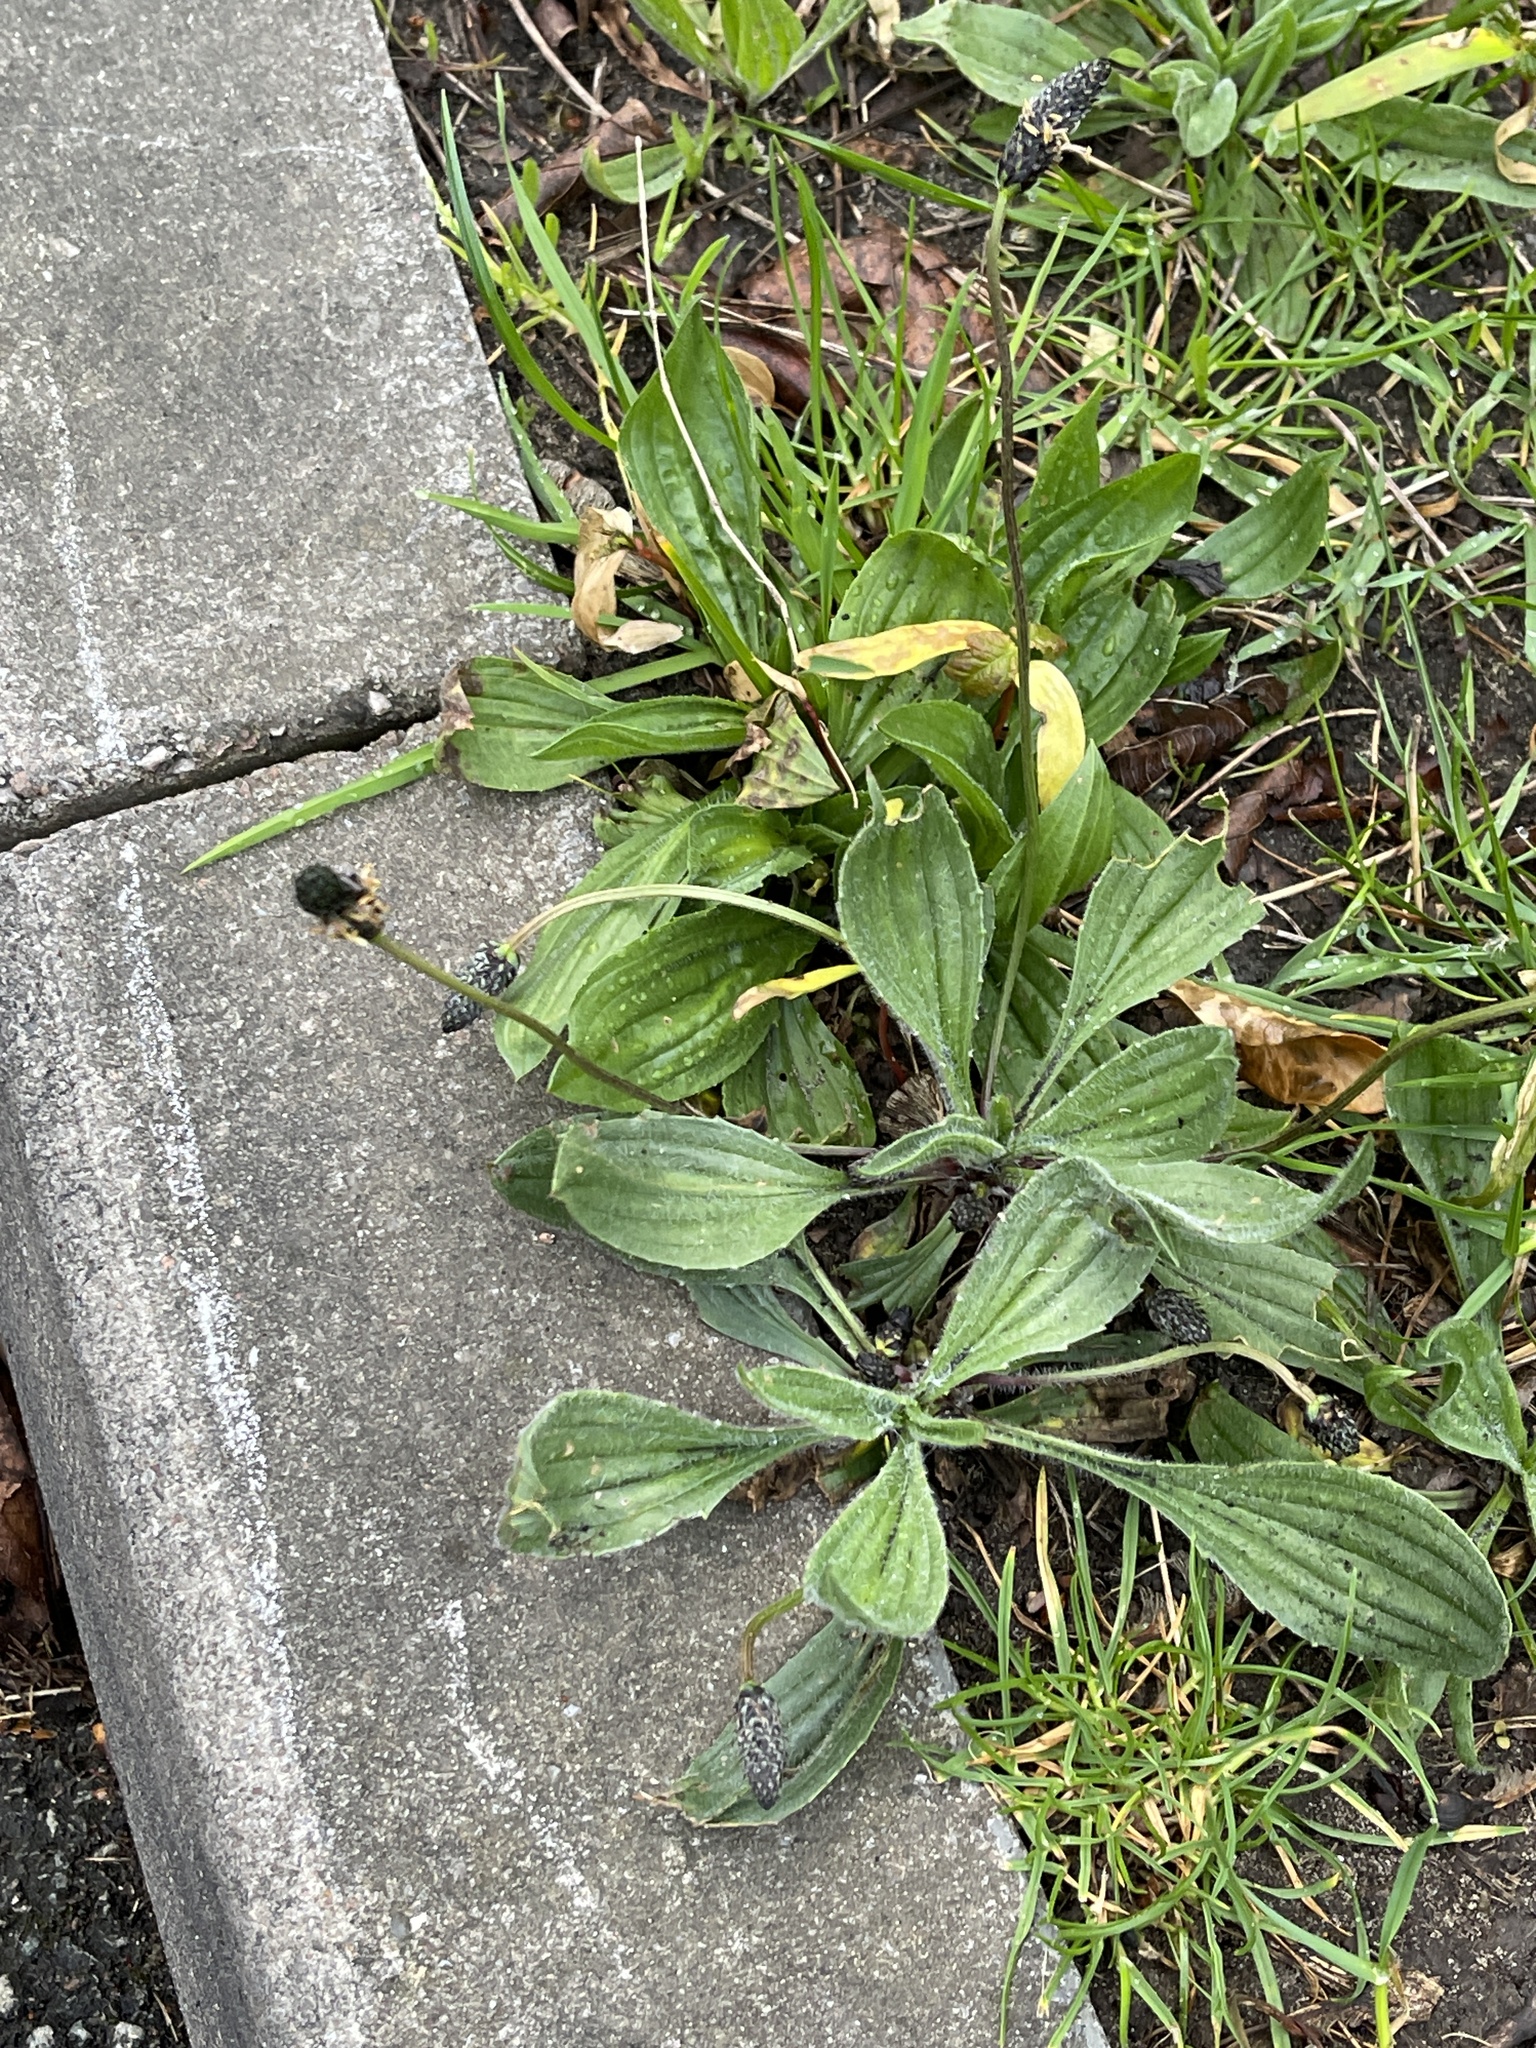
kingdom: Plantae
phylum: Tracheophyta
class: Magnoliopsida
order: Lamiales
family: Plantaginaceae
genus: Plantago
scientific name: Plantago lanceolata
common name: Ribwort plantain
